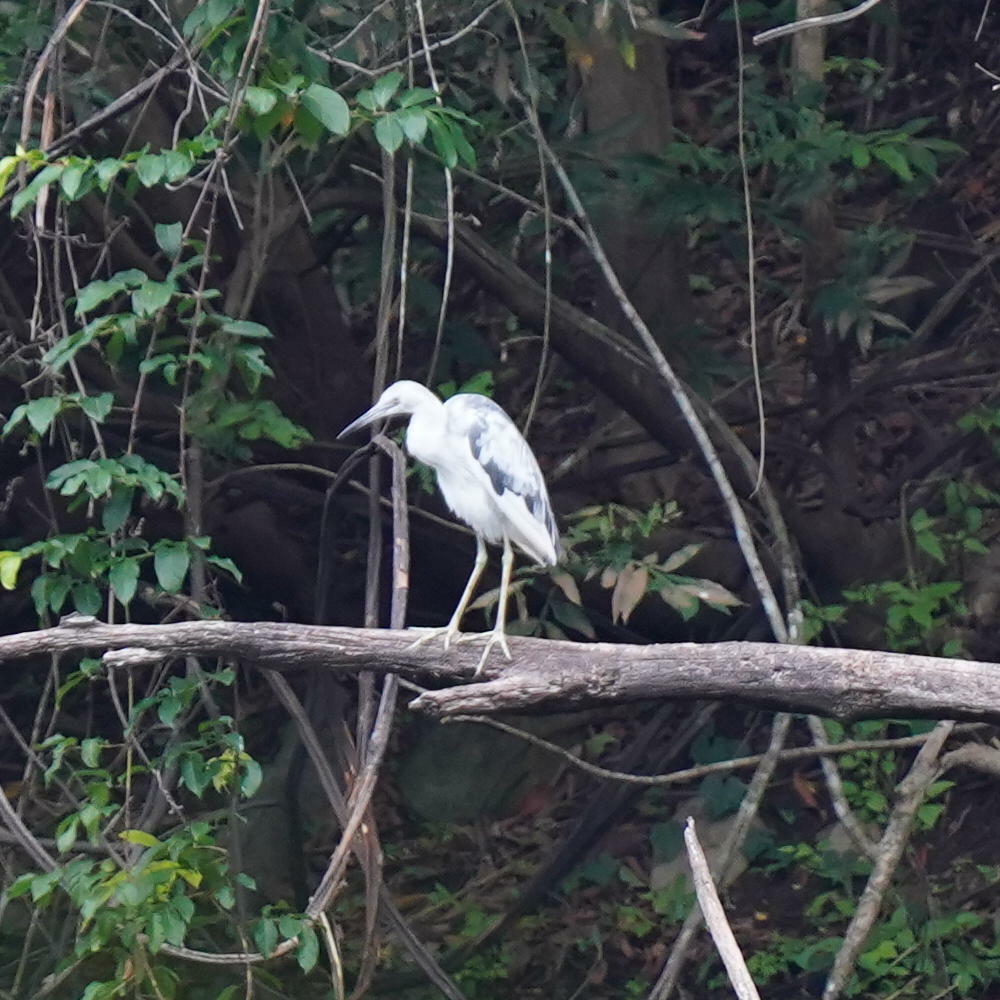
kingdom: Animalia
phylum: Chordata
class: Aves
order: Pelecaniformes
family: Ardeidae
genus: Egretta
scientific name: Egretta caerulea
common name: Little blue heron
